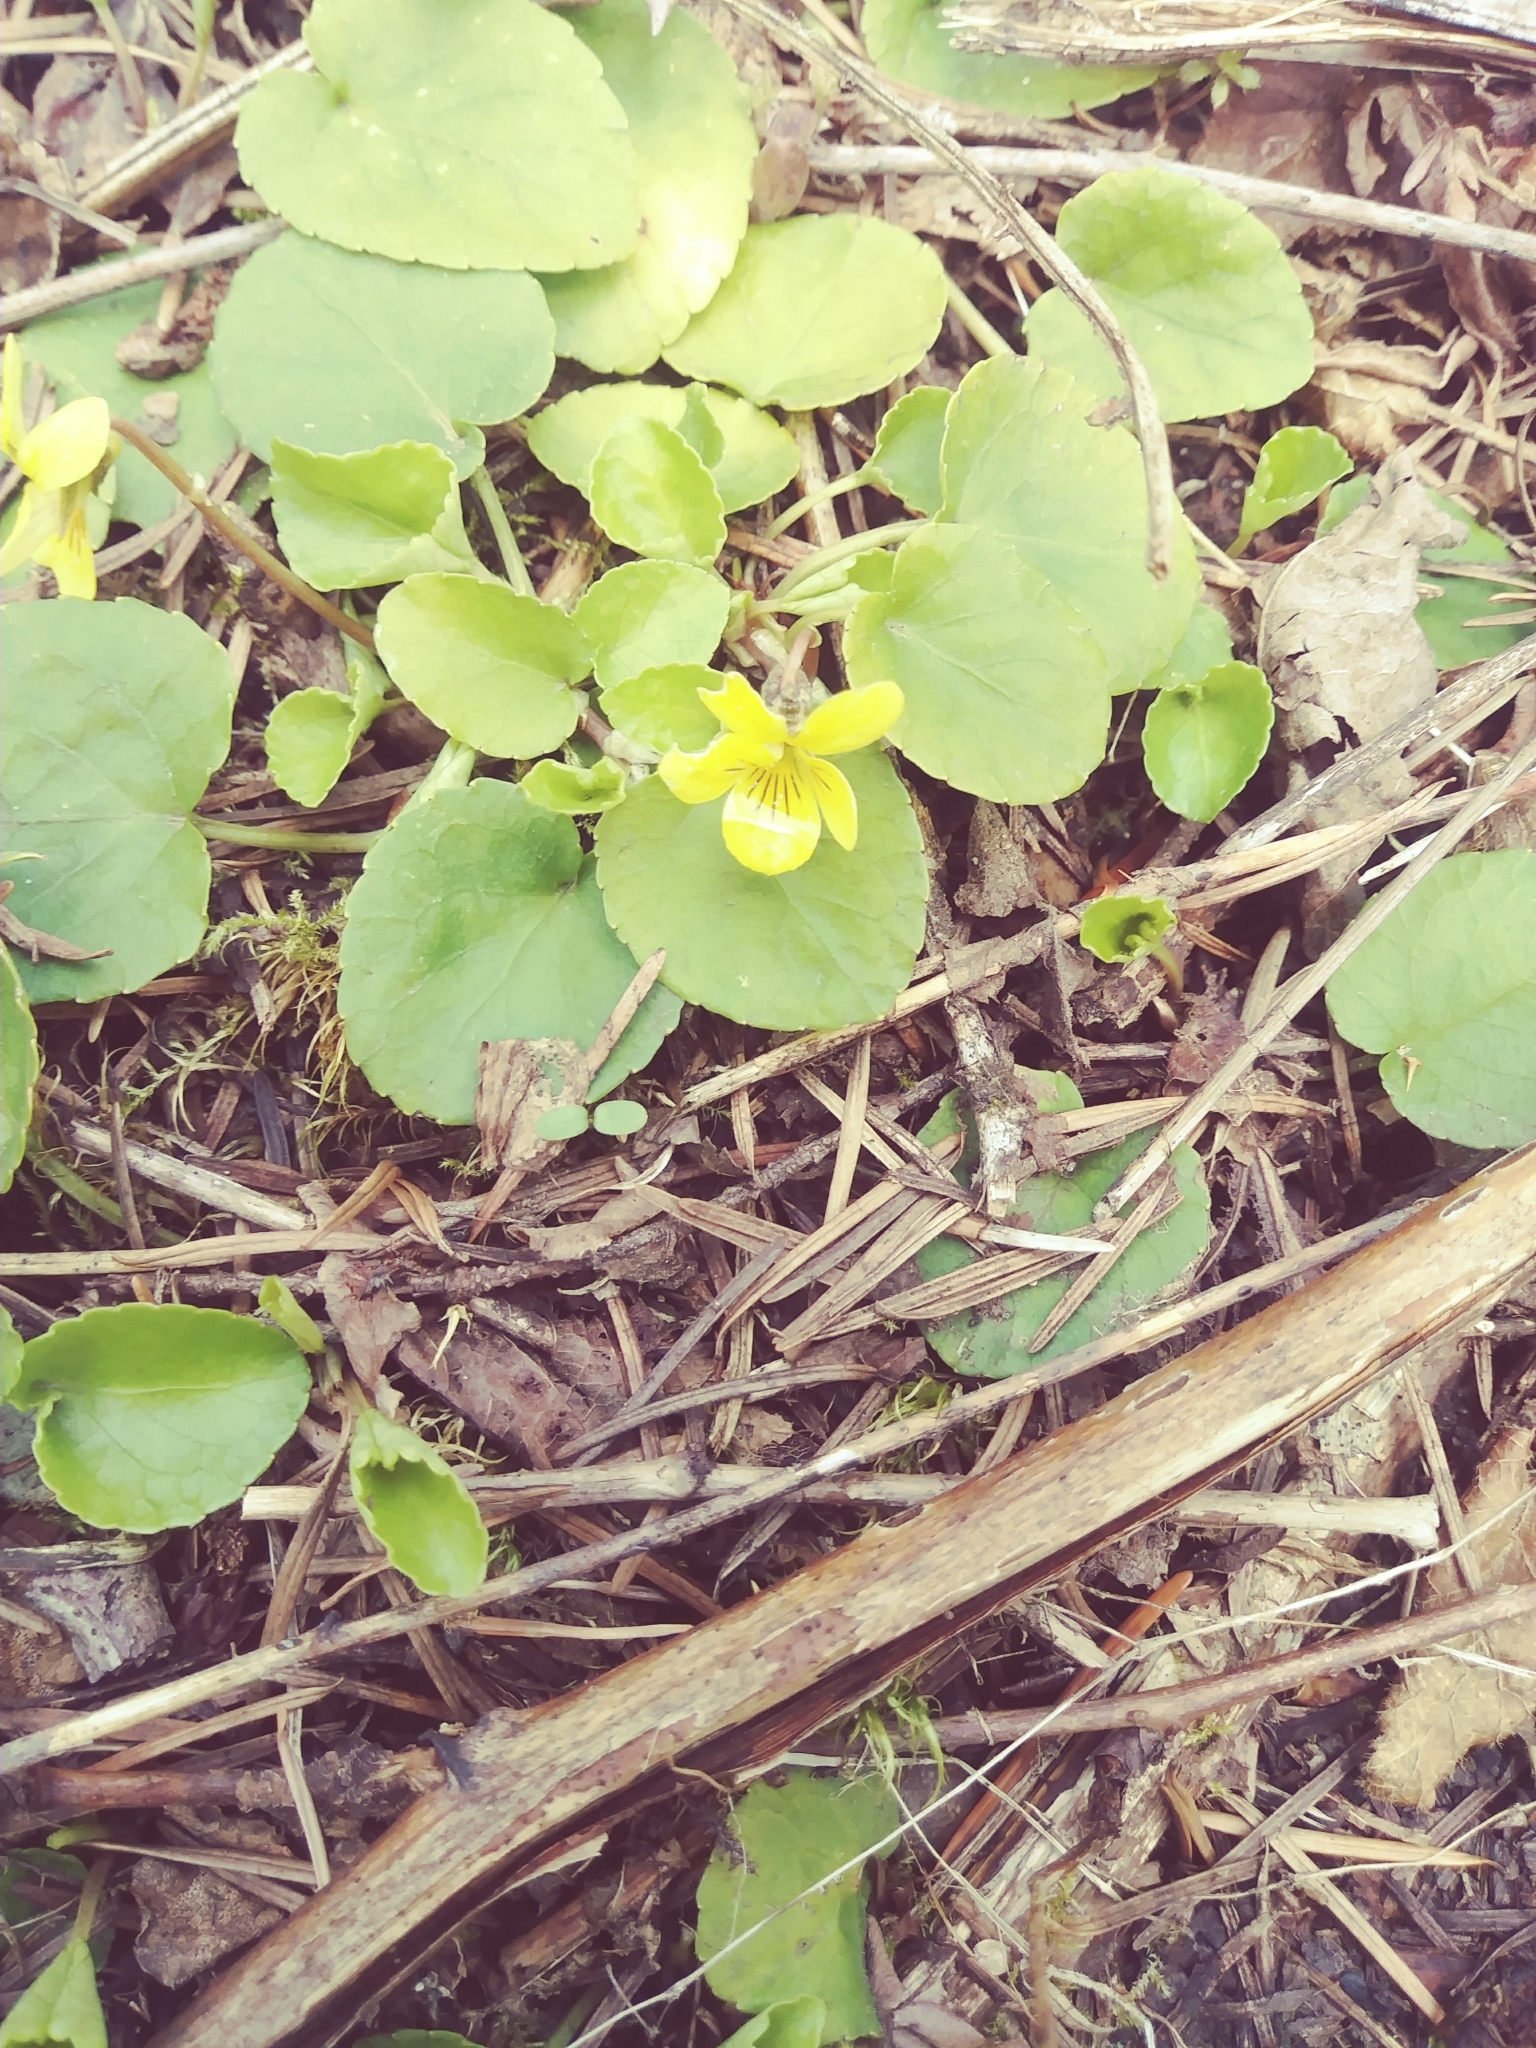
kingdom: Plantae
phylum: Tracheophyta
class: Magnoliopsida
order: Malpighiales
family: Violaceae
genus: Viola
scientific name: Viola sempervirens
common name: Evergreen violet
